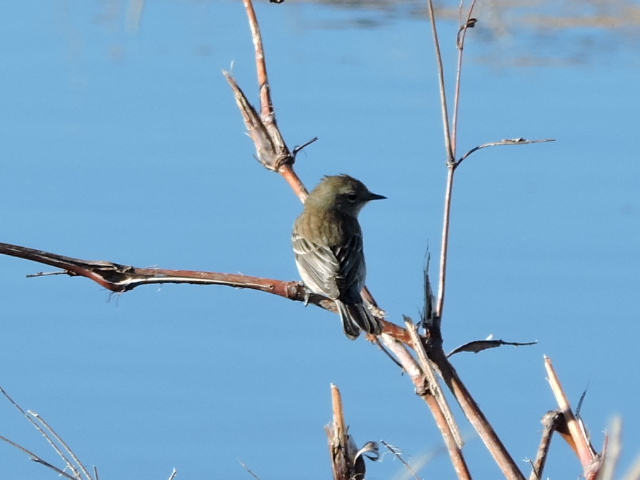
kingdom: Animalia
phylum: Chordata
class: Aves
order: Passeriformes
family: Parulidae
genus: Setophaga
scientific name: Setophaga coronata
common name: Myrtle warbler
